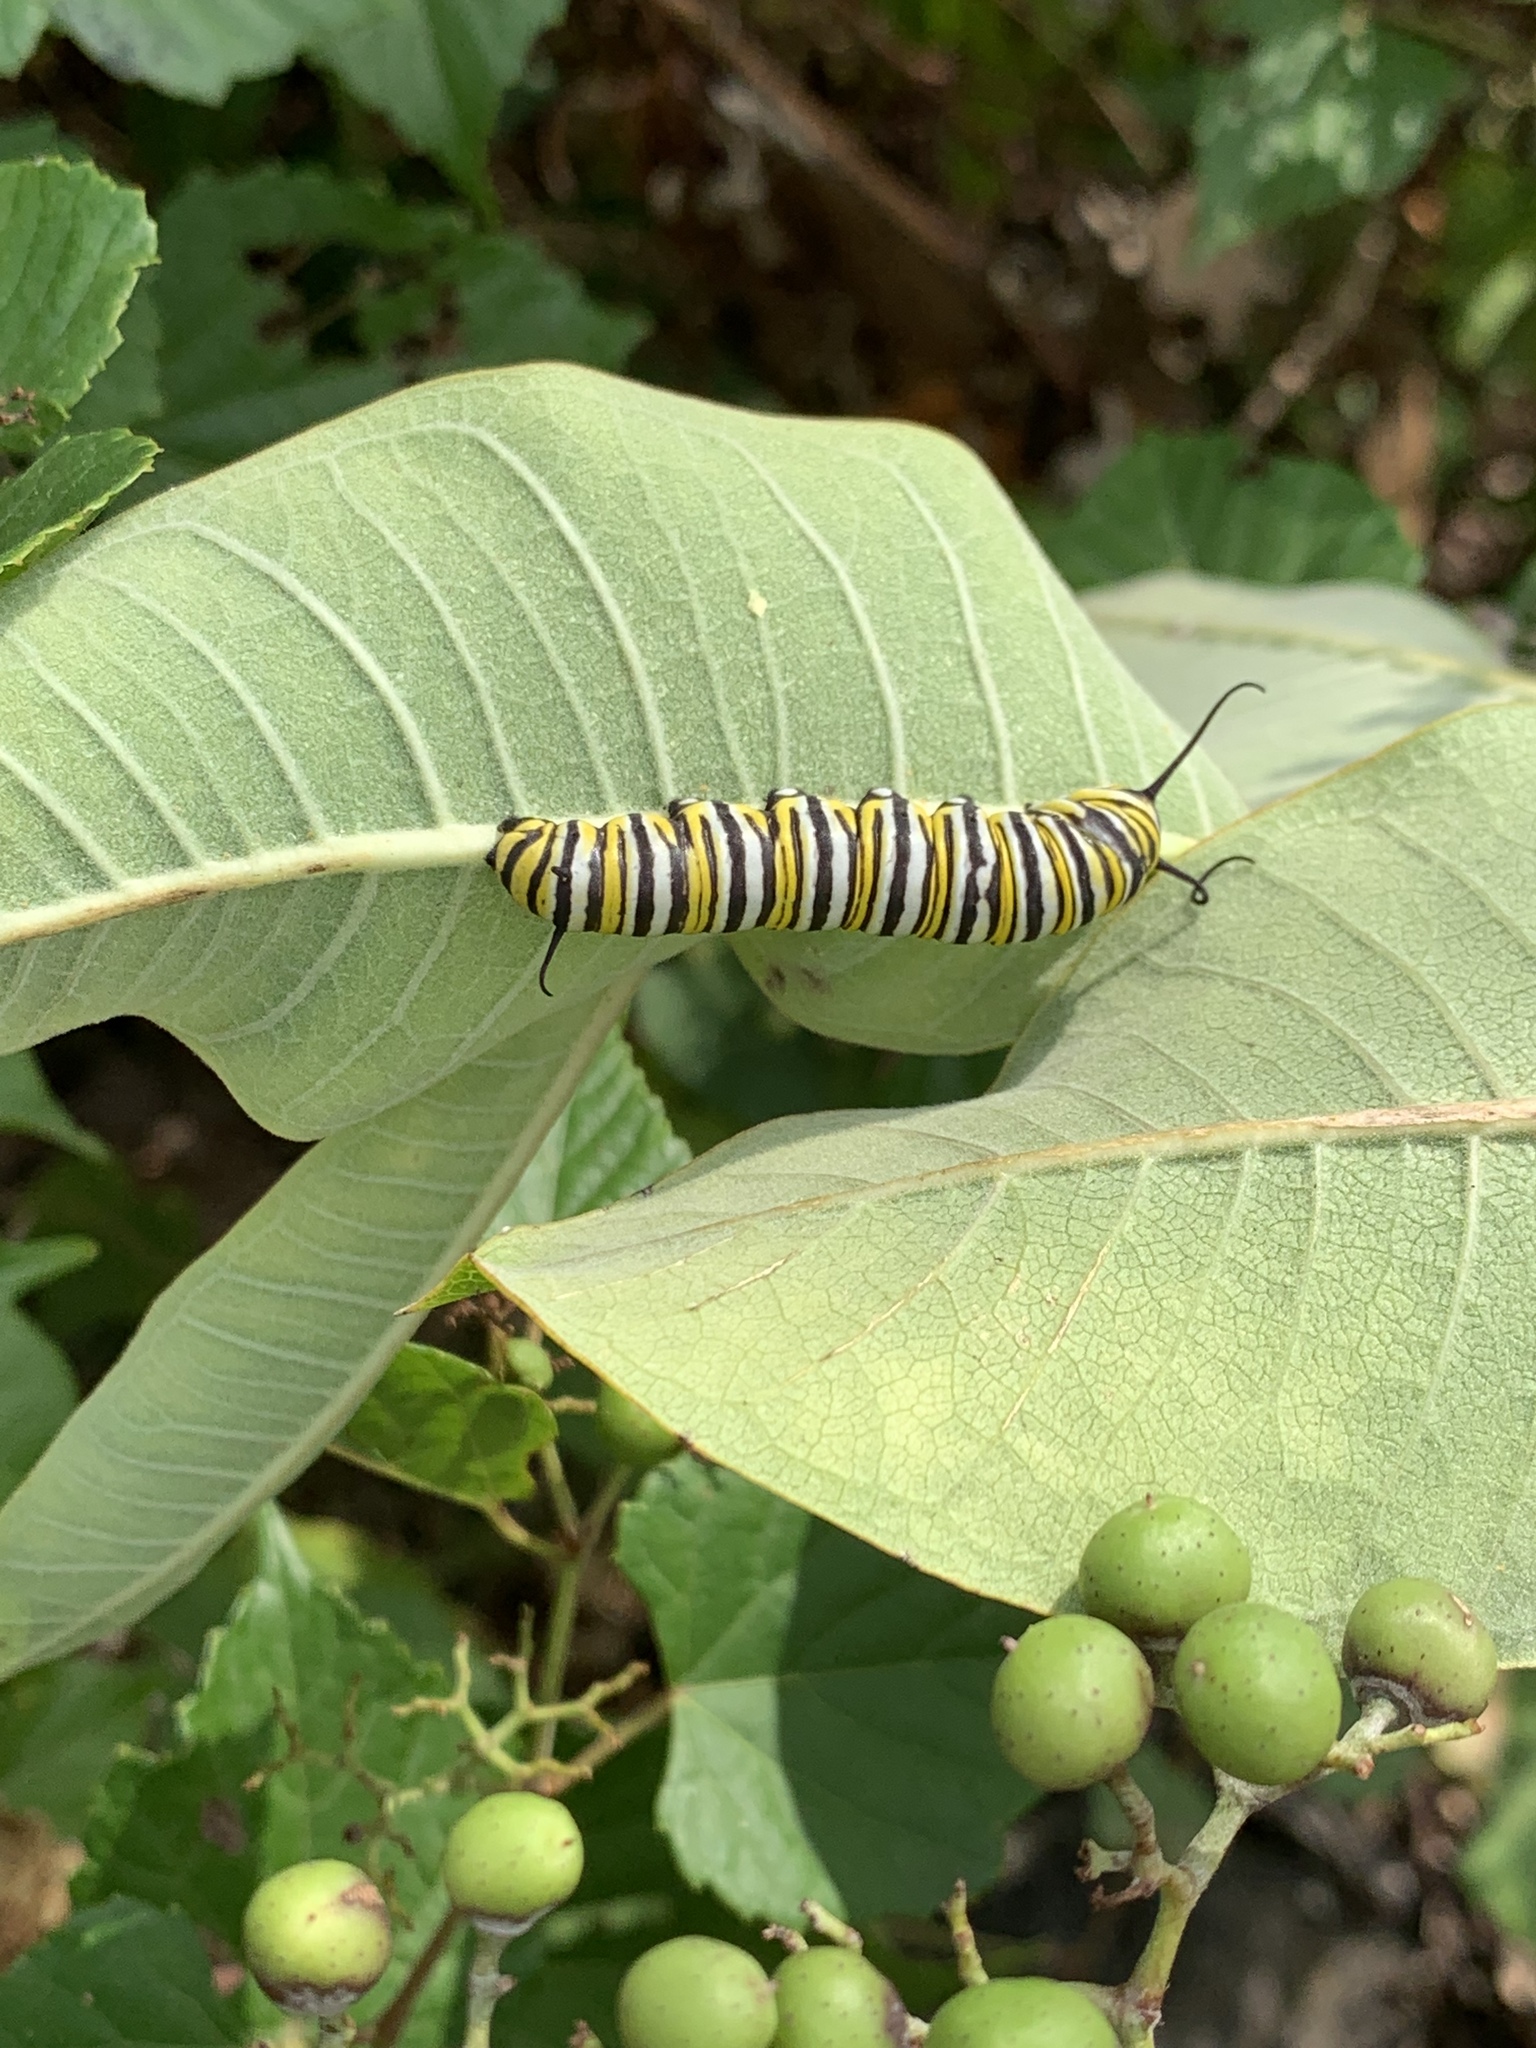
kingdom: Animalia
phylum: Arthropoda
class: Insecta
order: Lepidoptera
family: Nymphalidae
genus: Danaus
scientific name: Danaus plexippus
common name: Monarch
